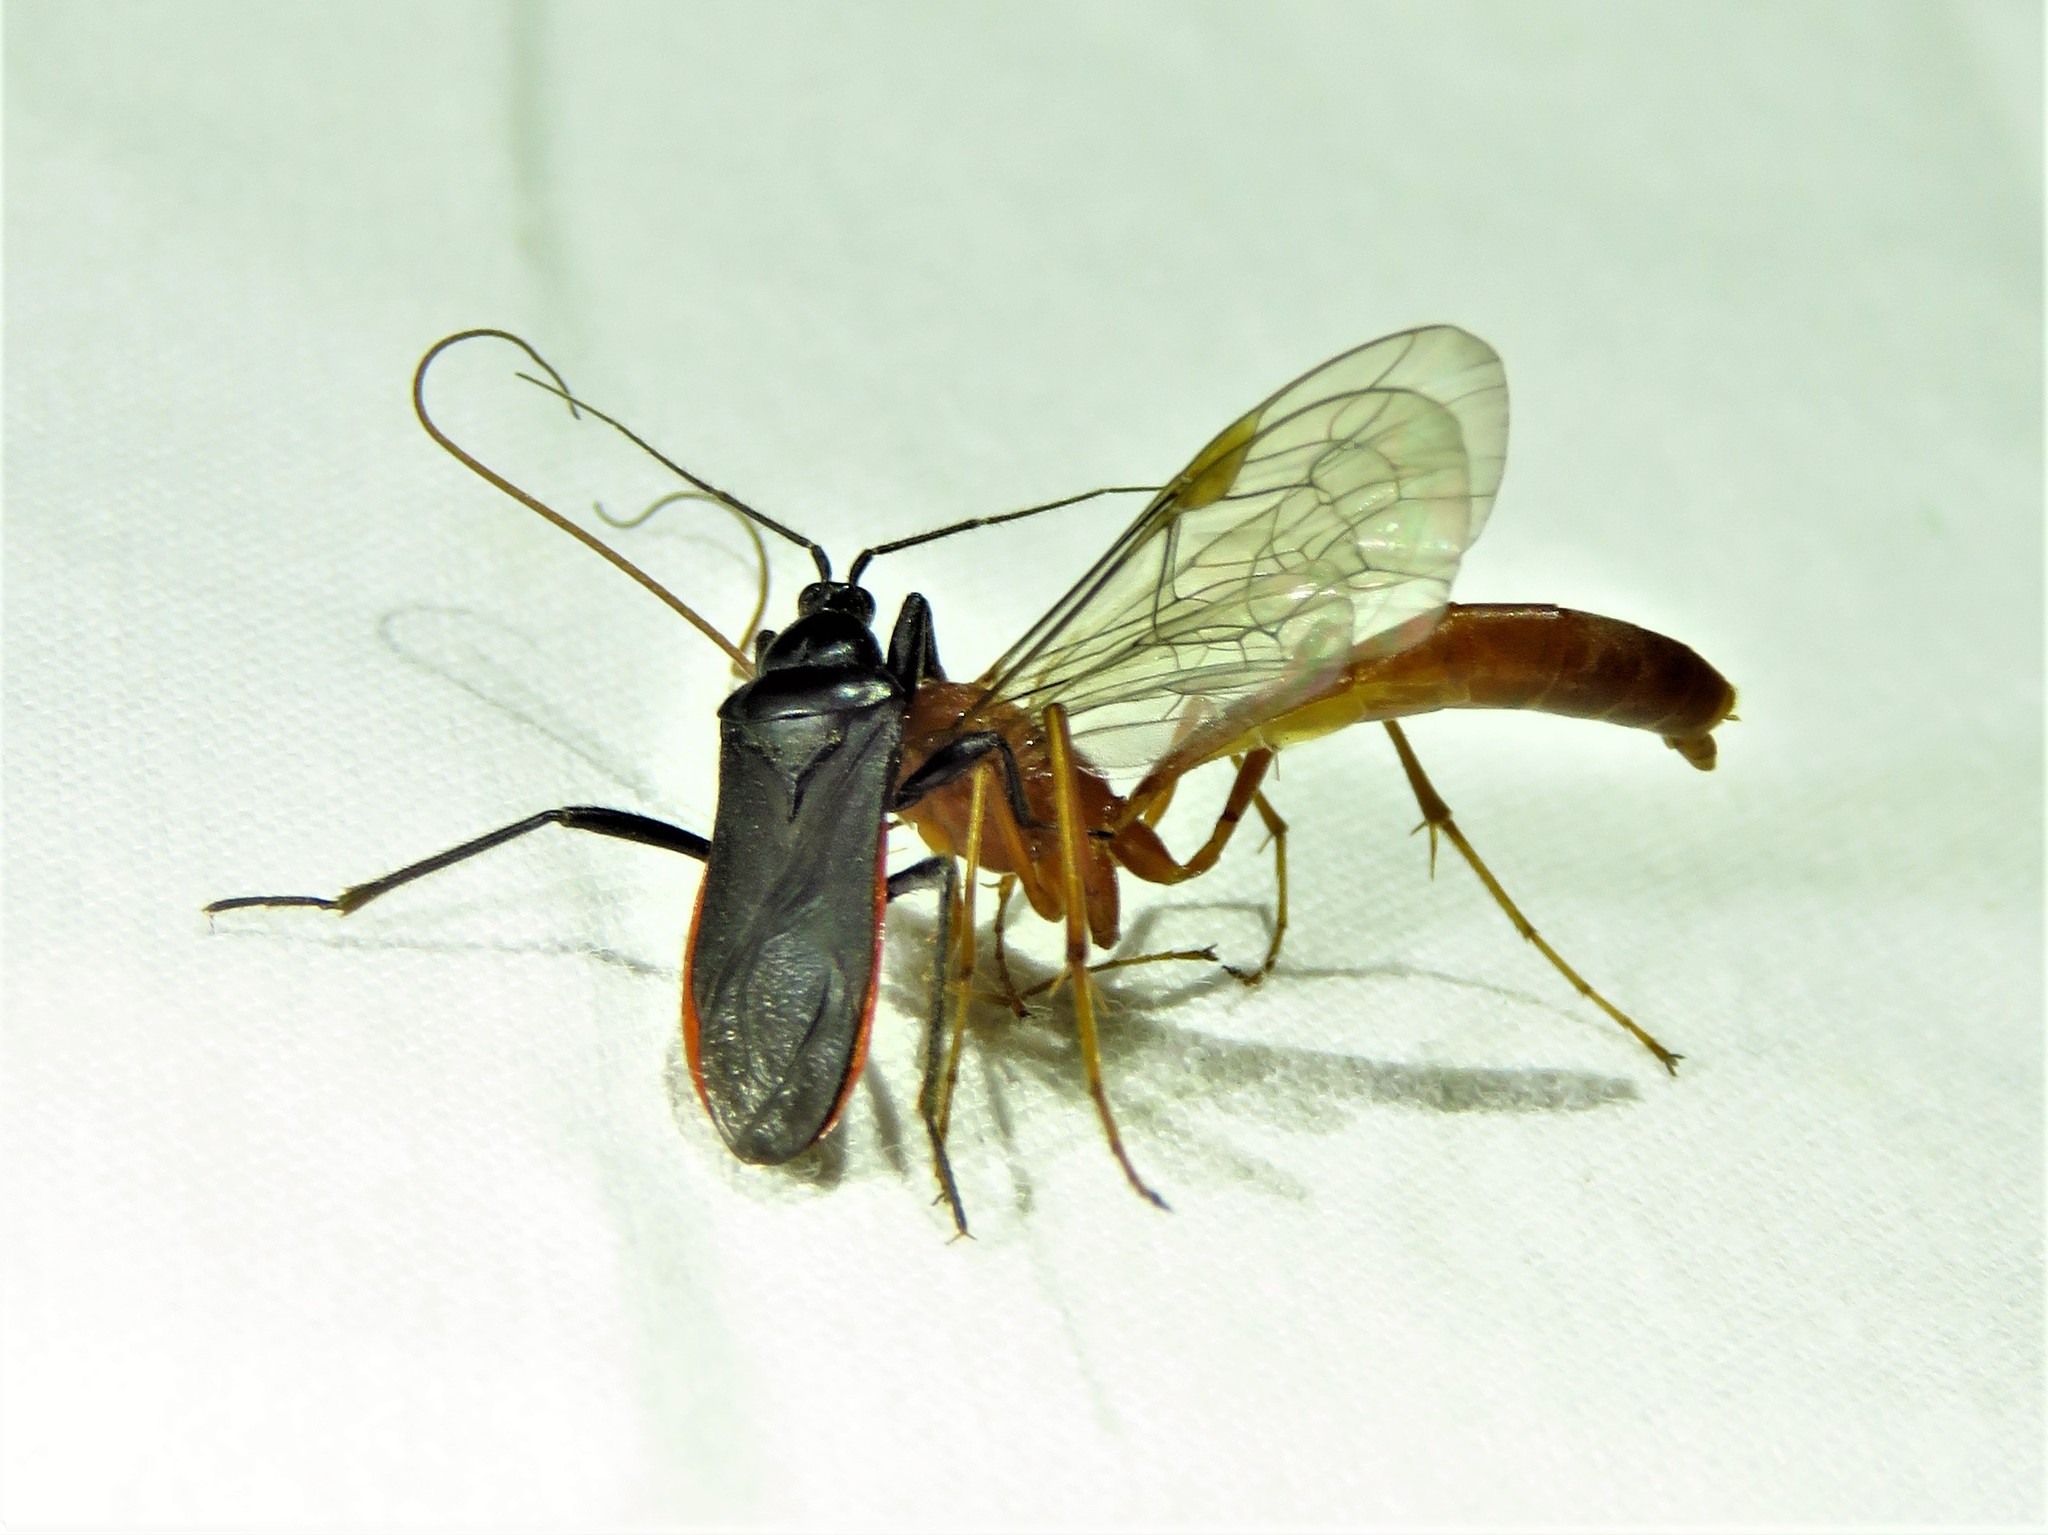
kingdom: Animalia
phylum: Arthropoda
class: Insecta
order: Hemiptera
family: Reduviidae
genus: Melanolestes
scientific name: Melanolestes picipes
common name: Assassin bug
